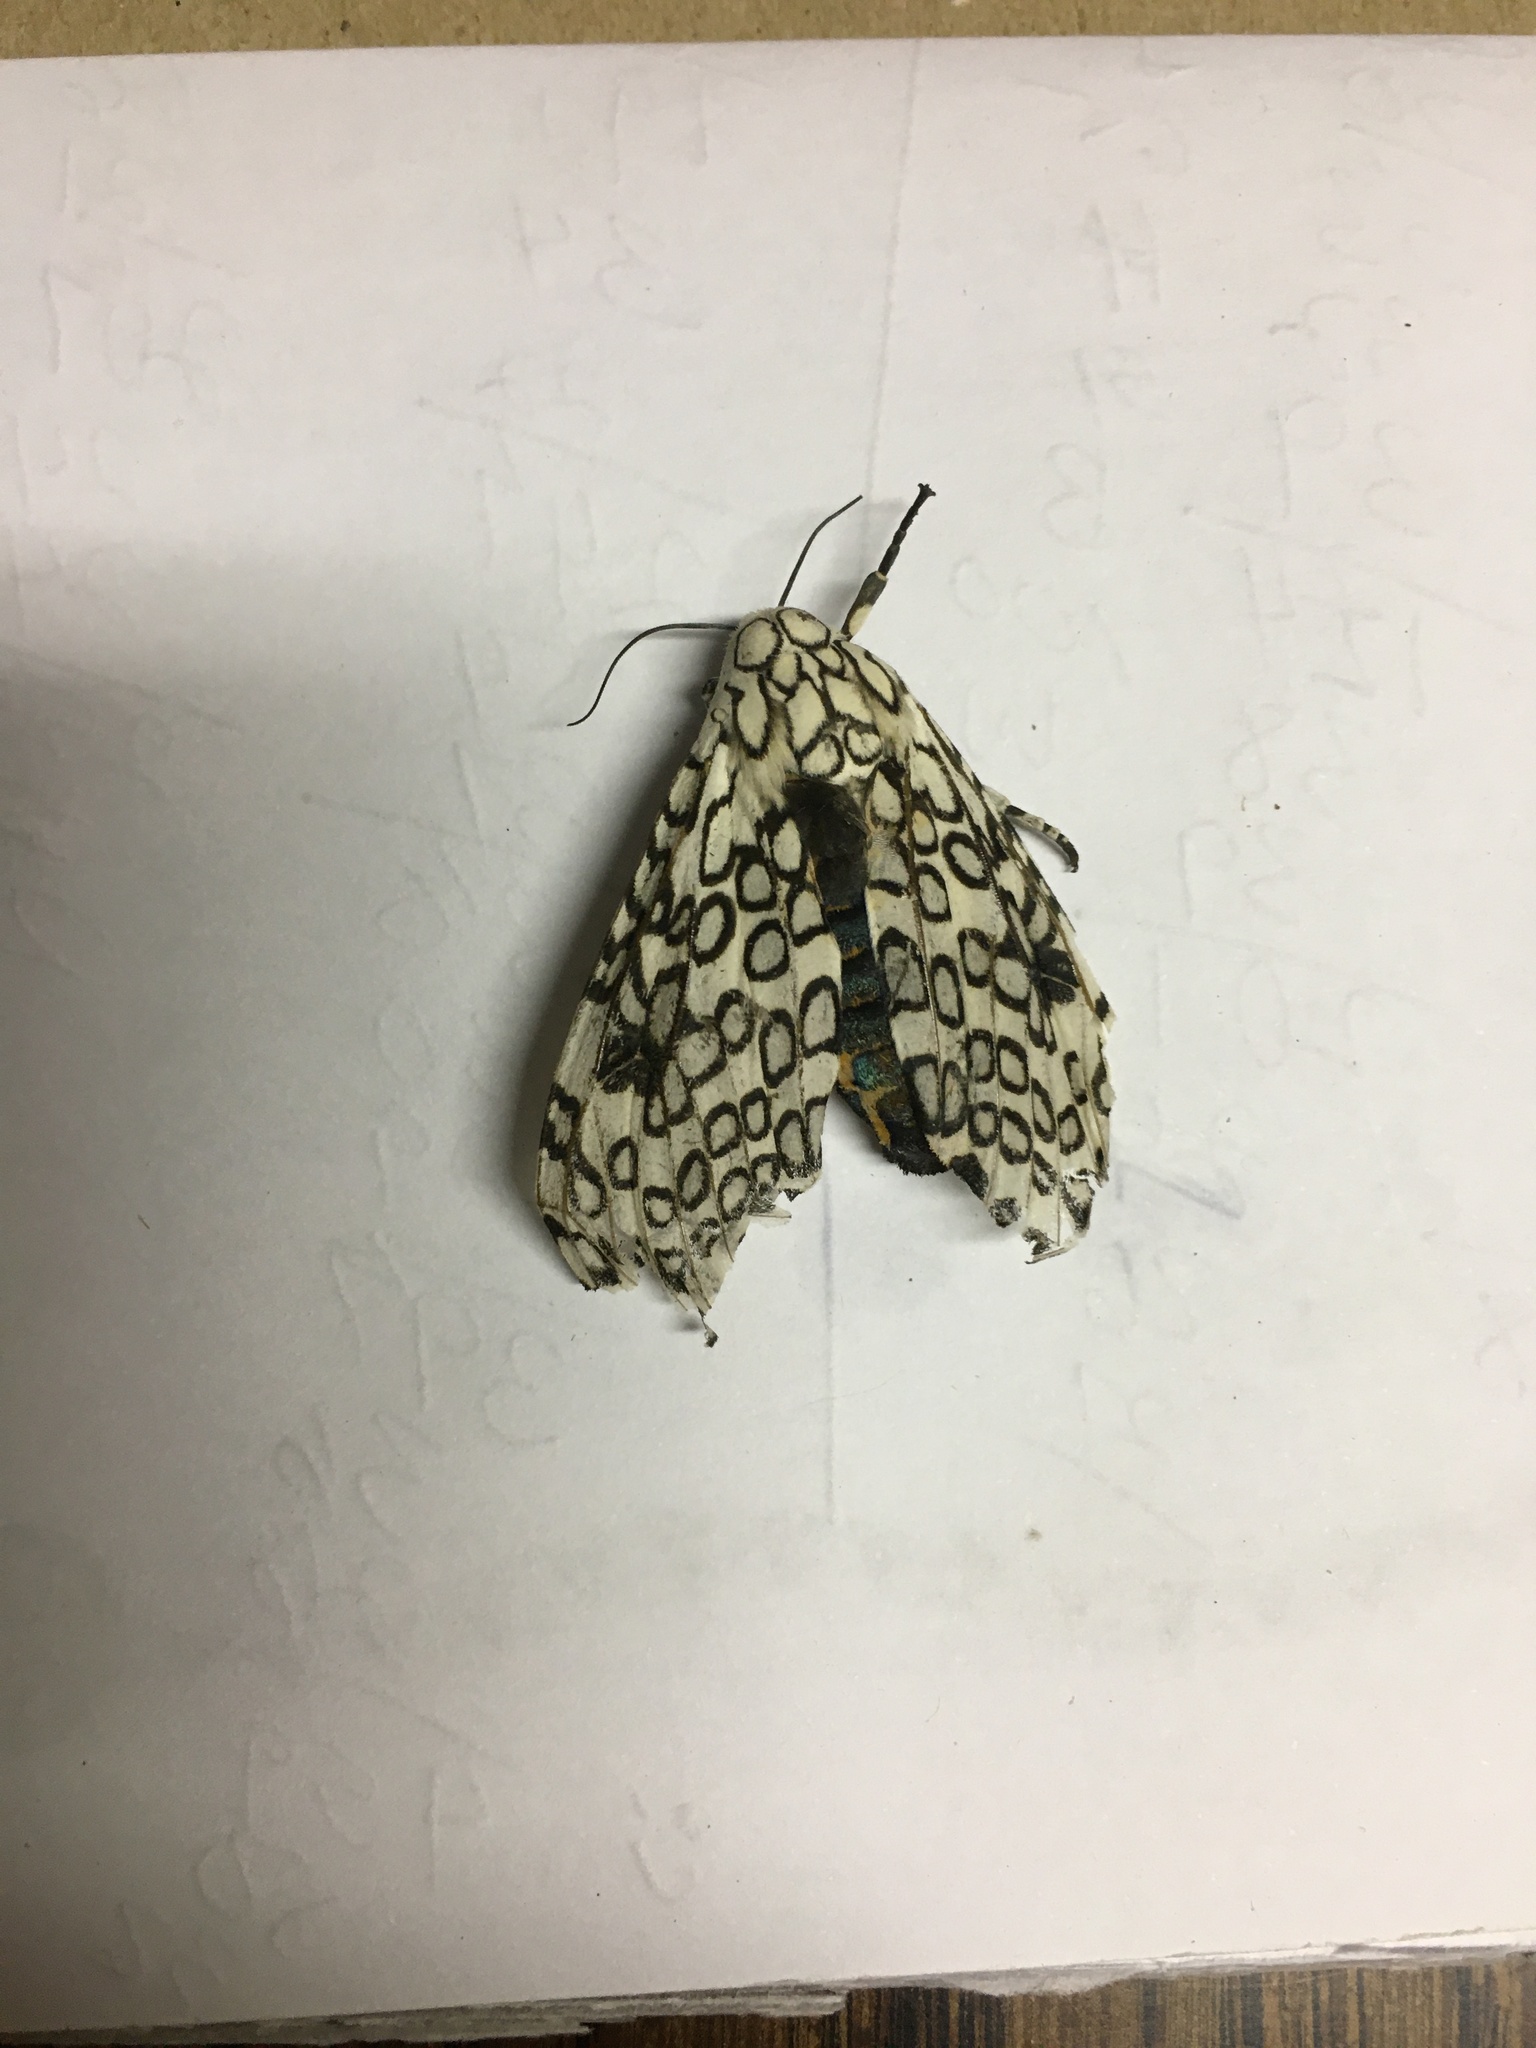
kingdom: Animalia
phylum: Arthropoda
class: Insecta
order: Lepidoptera
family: Erebidae
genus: Hypercompe
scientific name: Hypercompe scribonia
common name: Giant leopard moth
